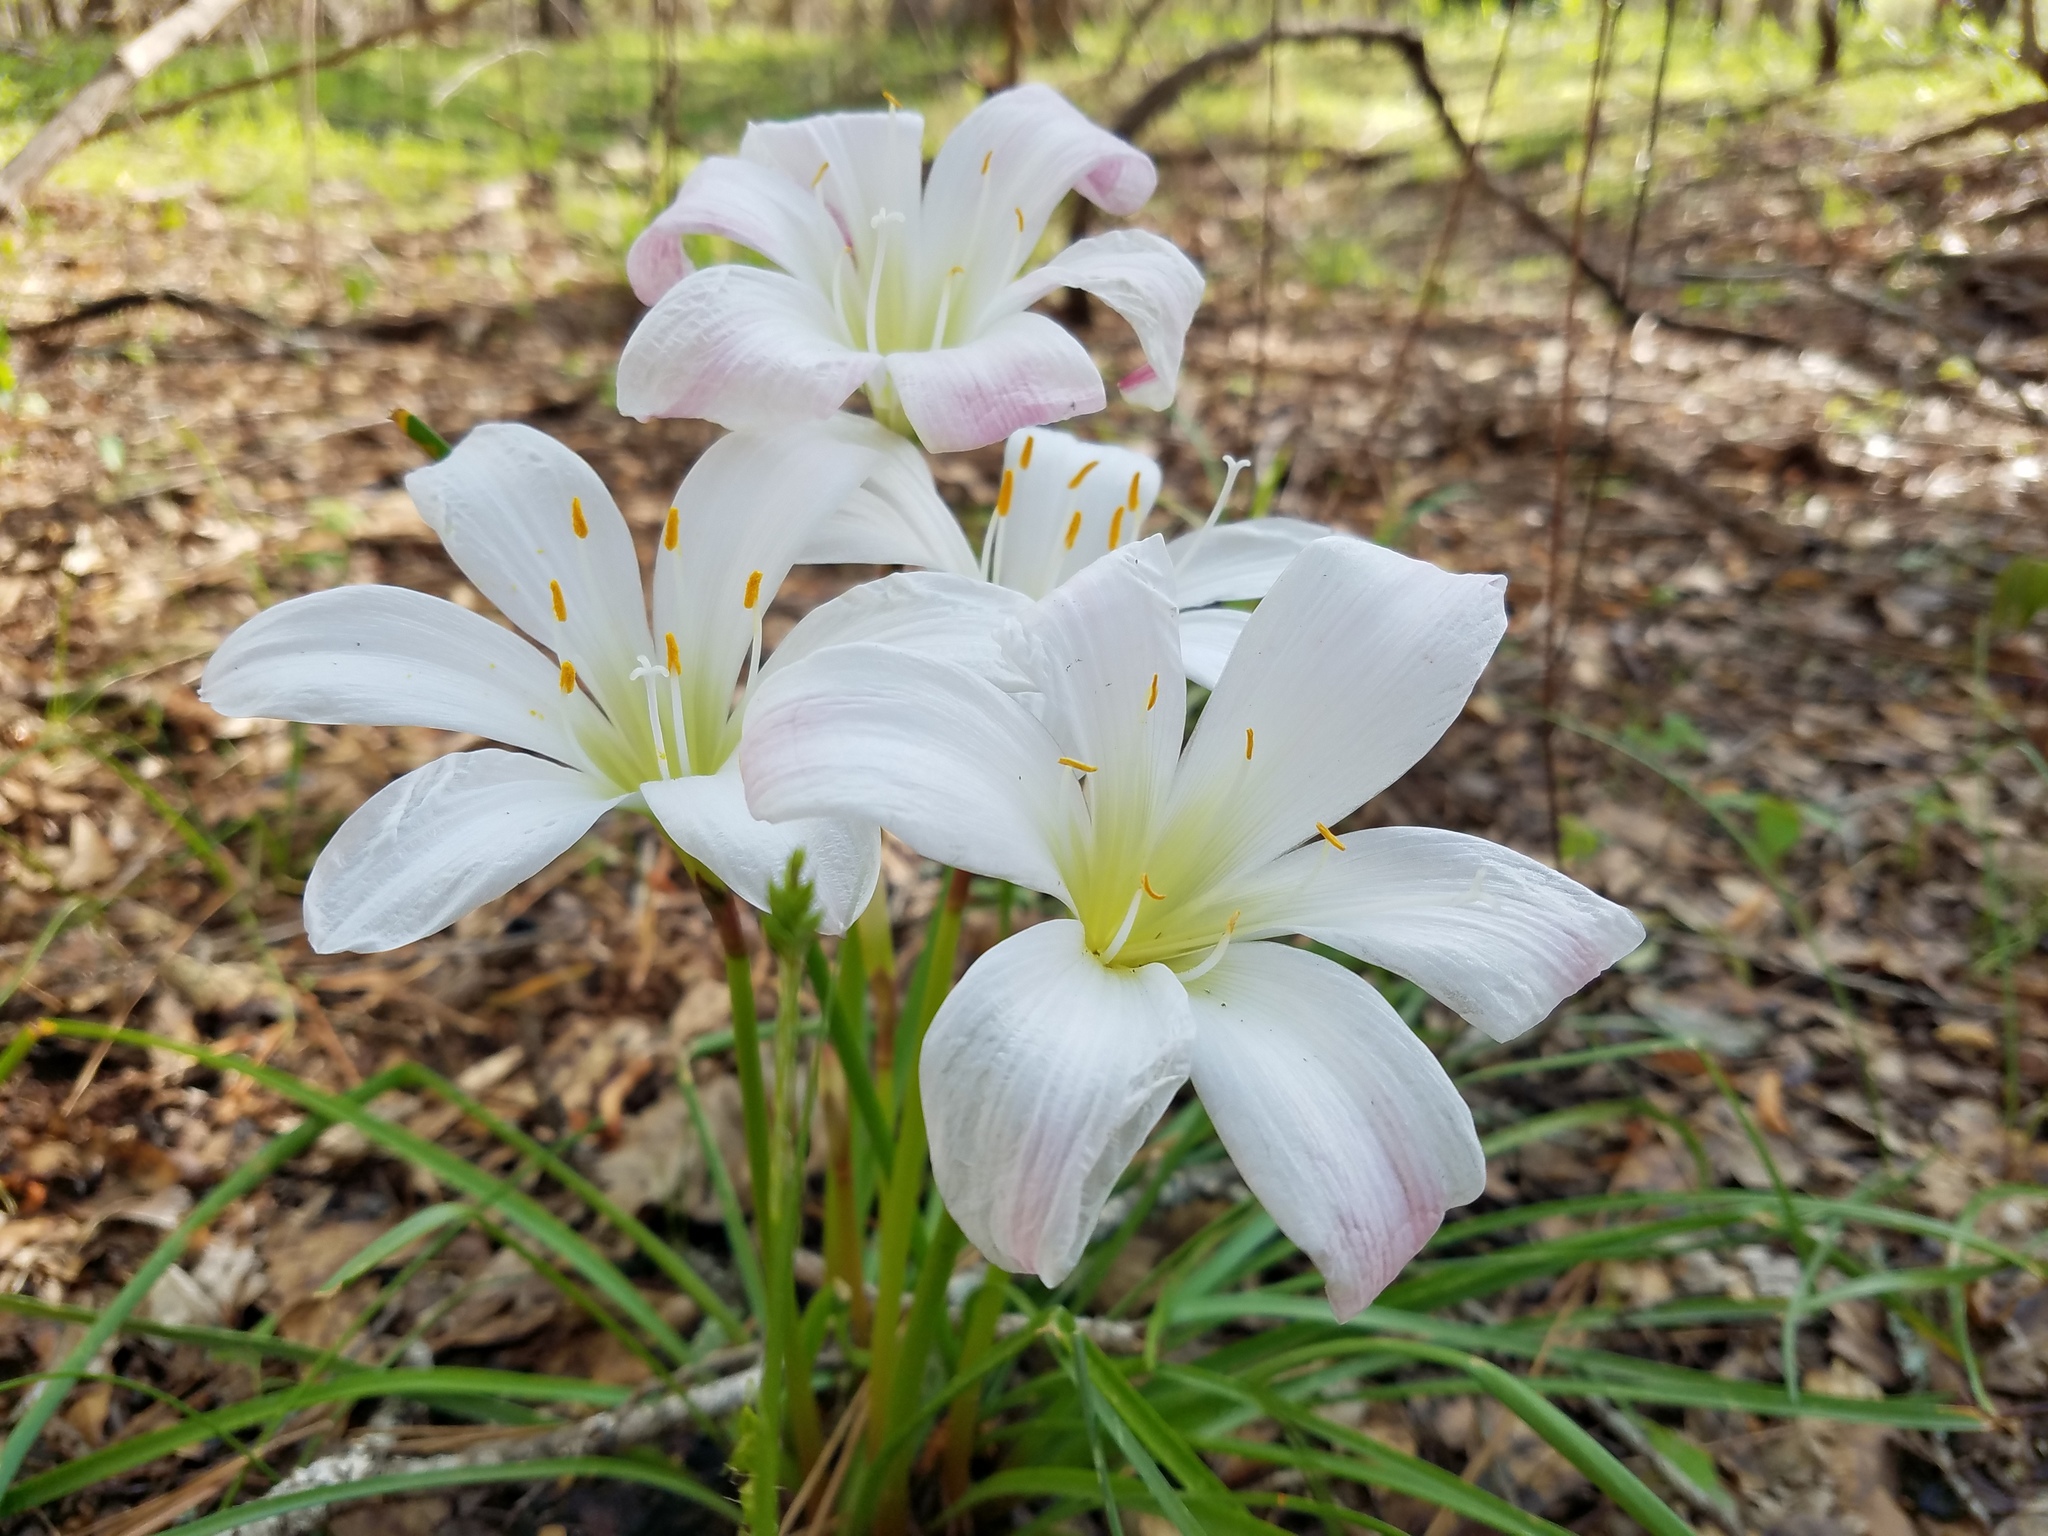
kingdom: Plantae
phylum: Tracheophyta
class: Liliopsida
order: Asparagales
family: Amaryllidaceae
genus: Zephyranthes
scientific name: Zephyranthes atamasco
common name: Atamasco lily
